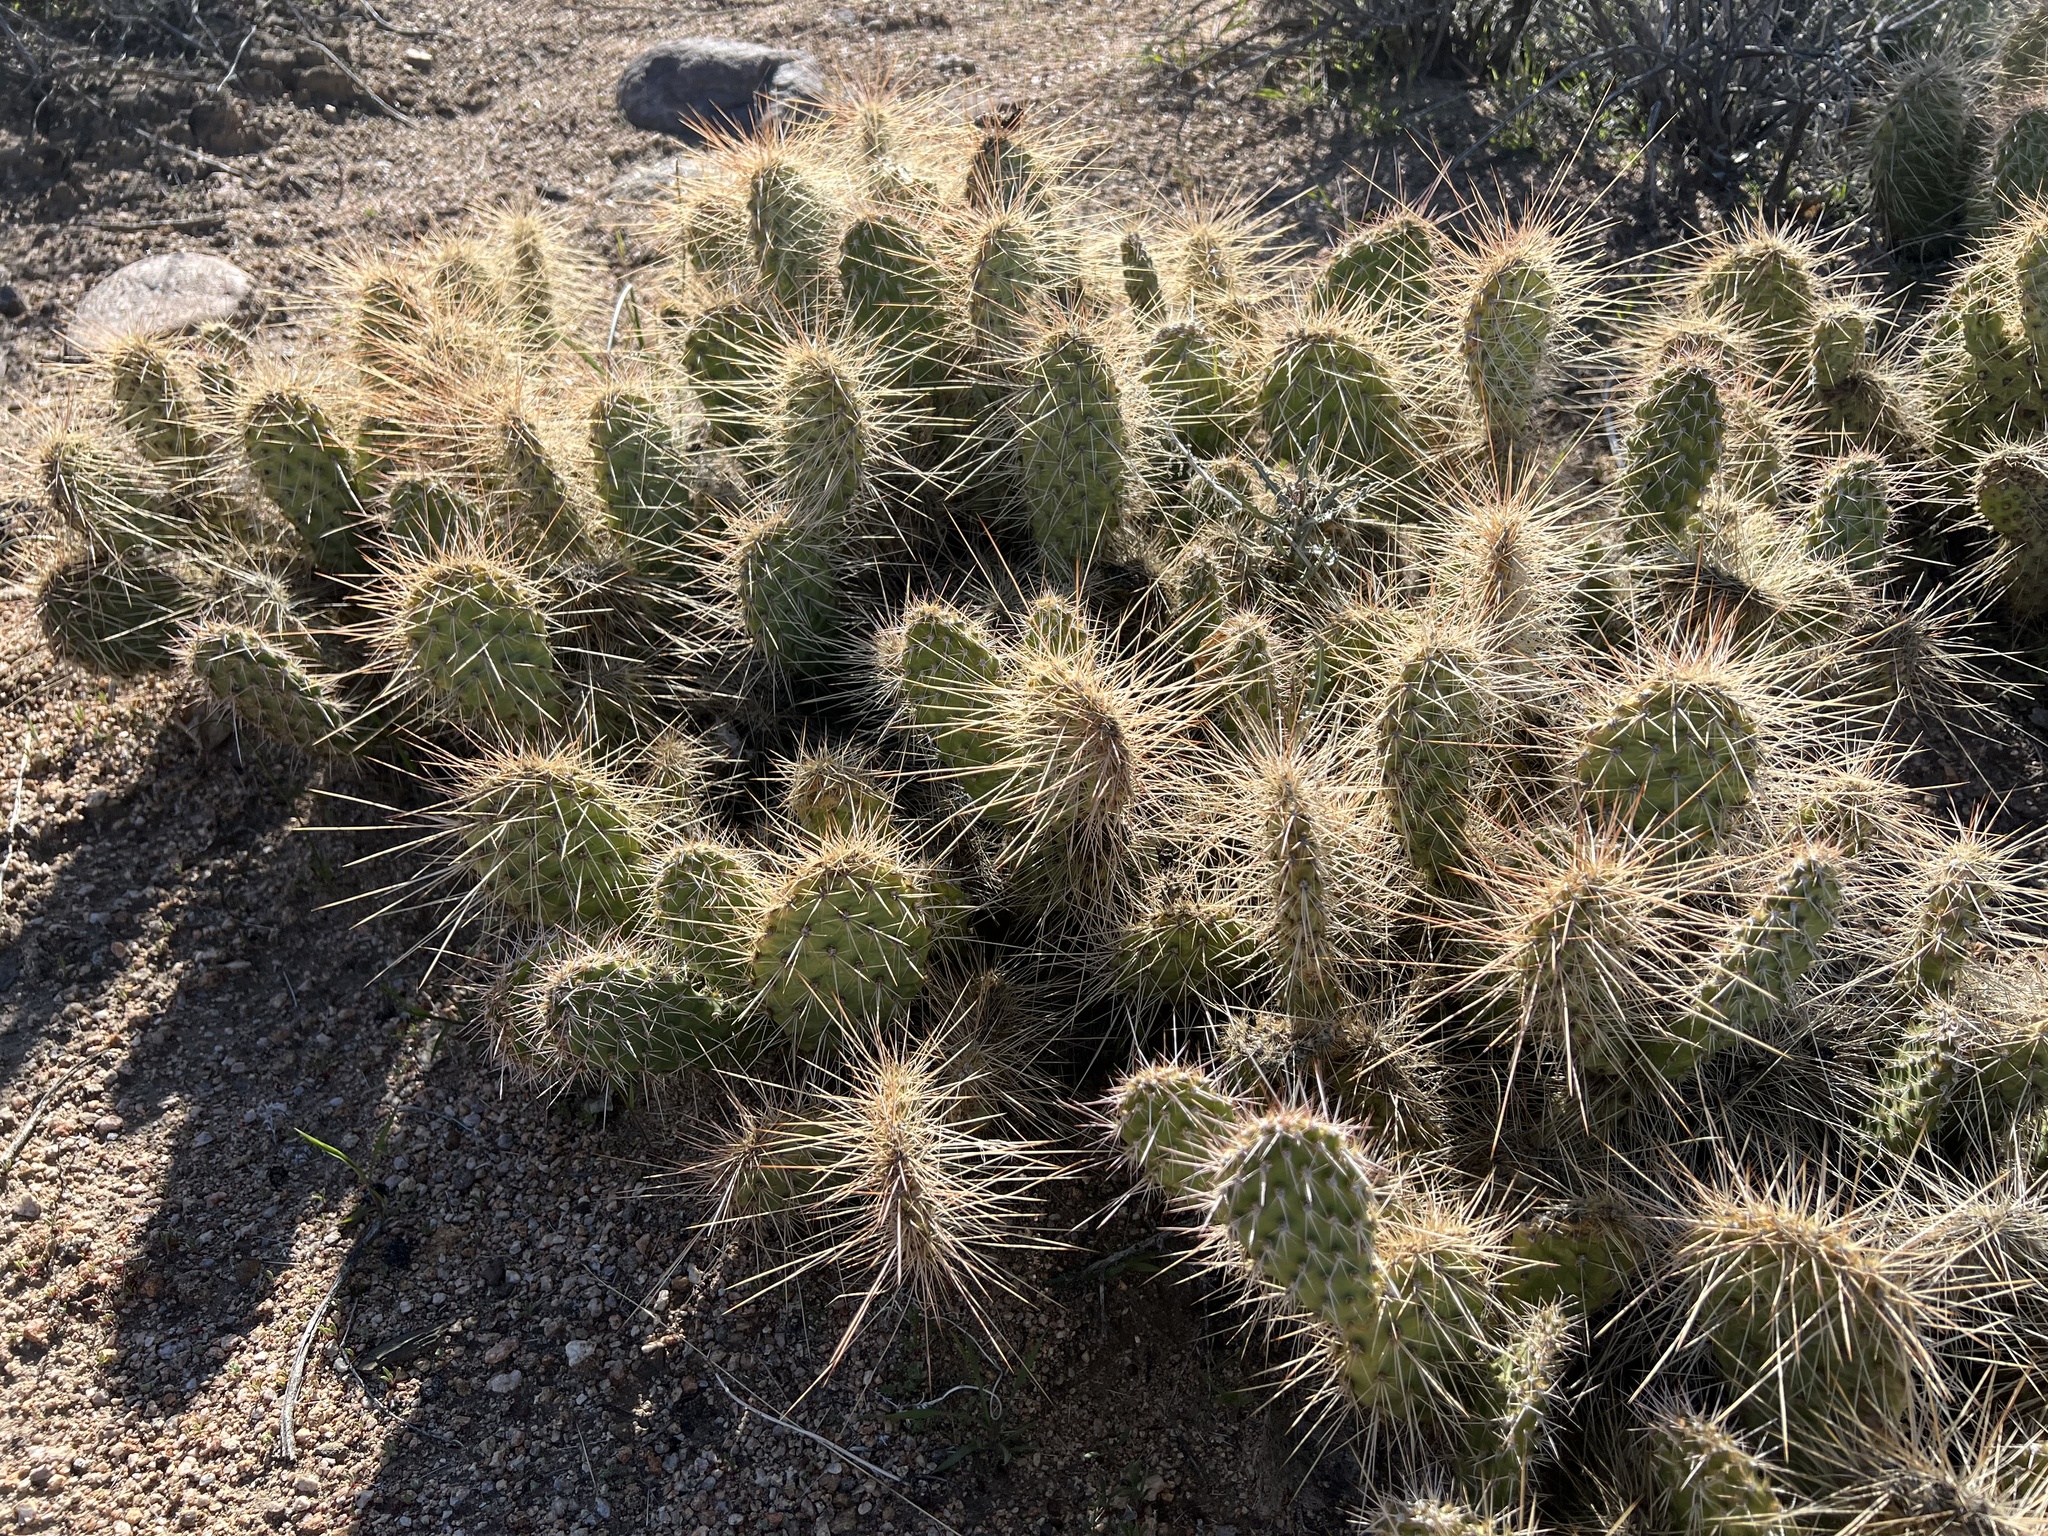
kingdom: Plantae
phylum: Tracheophyta
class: Magnoliopsida
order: Caryophyllales
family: Cactaceae
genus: Opuntia
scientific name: Opuntia polyacantha
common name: Plains prickly-pear
